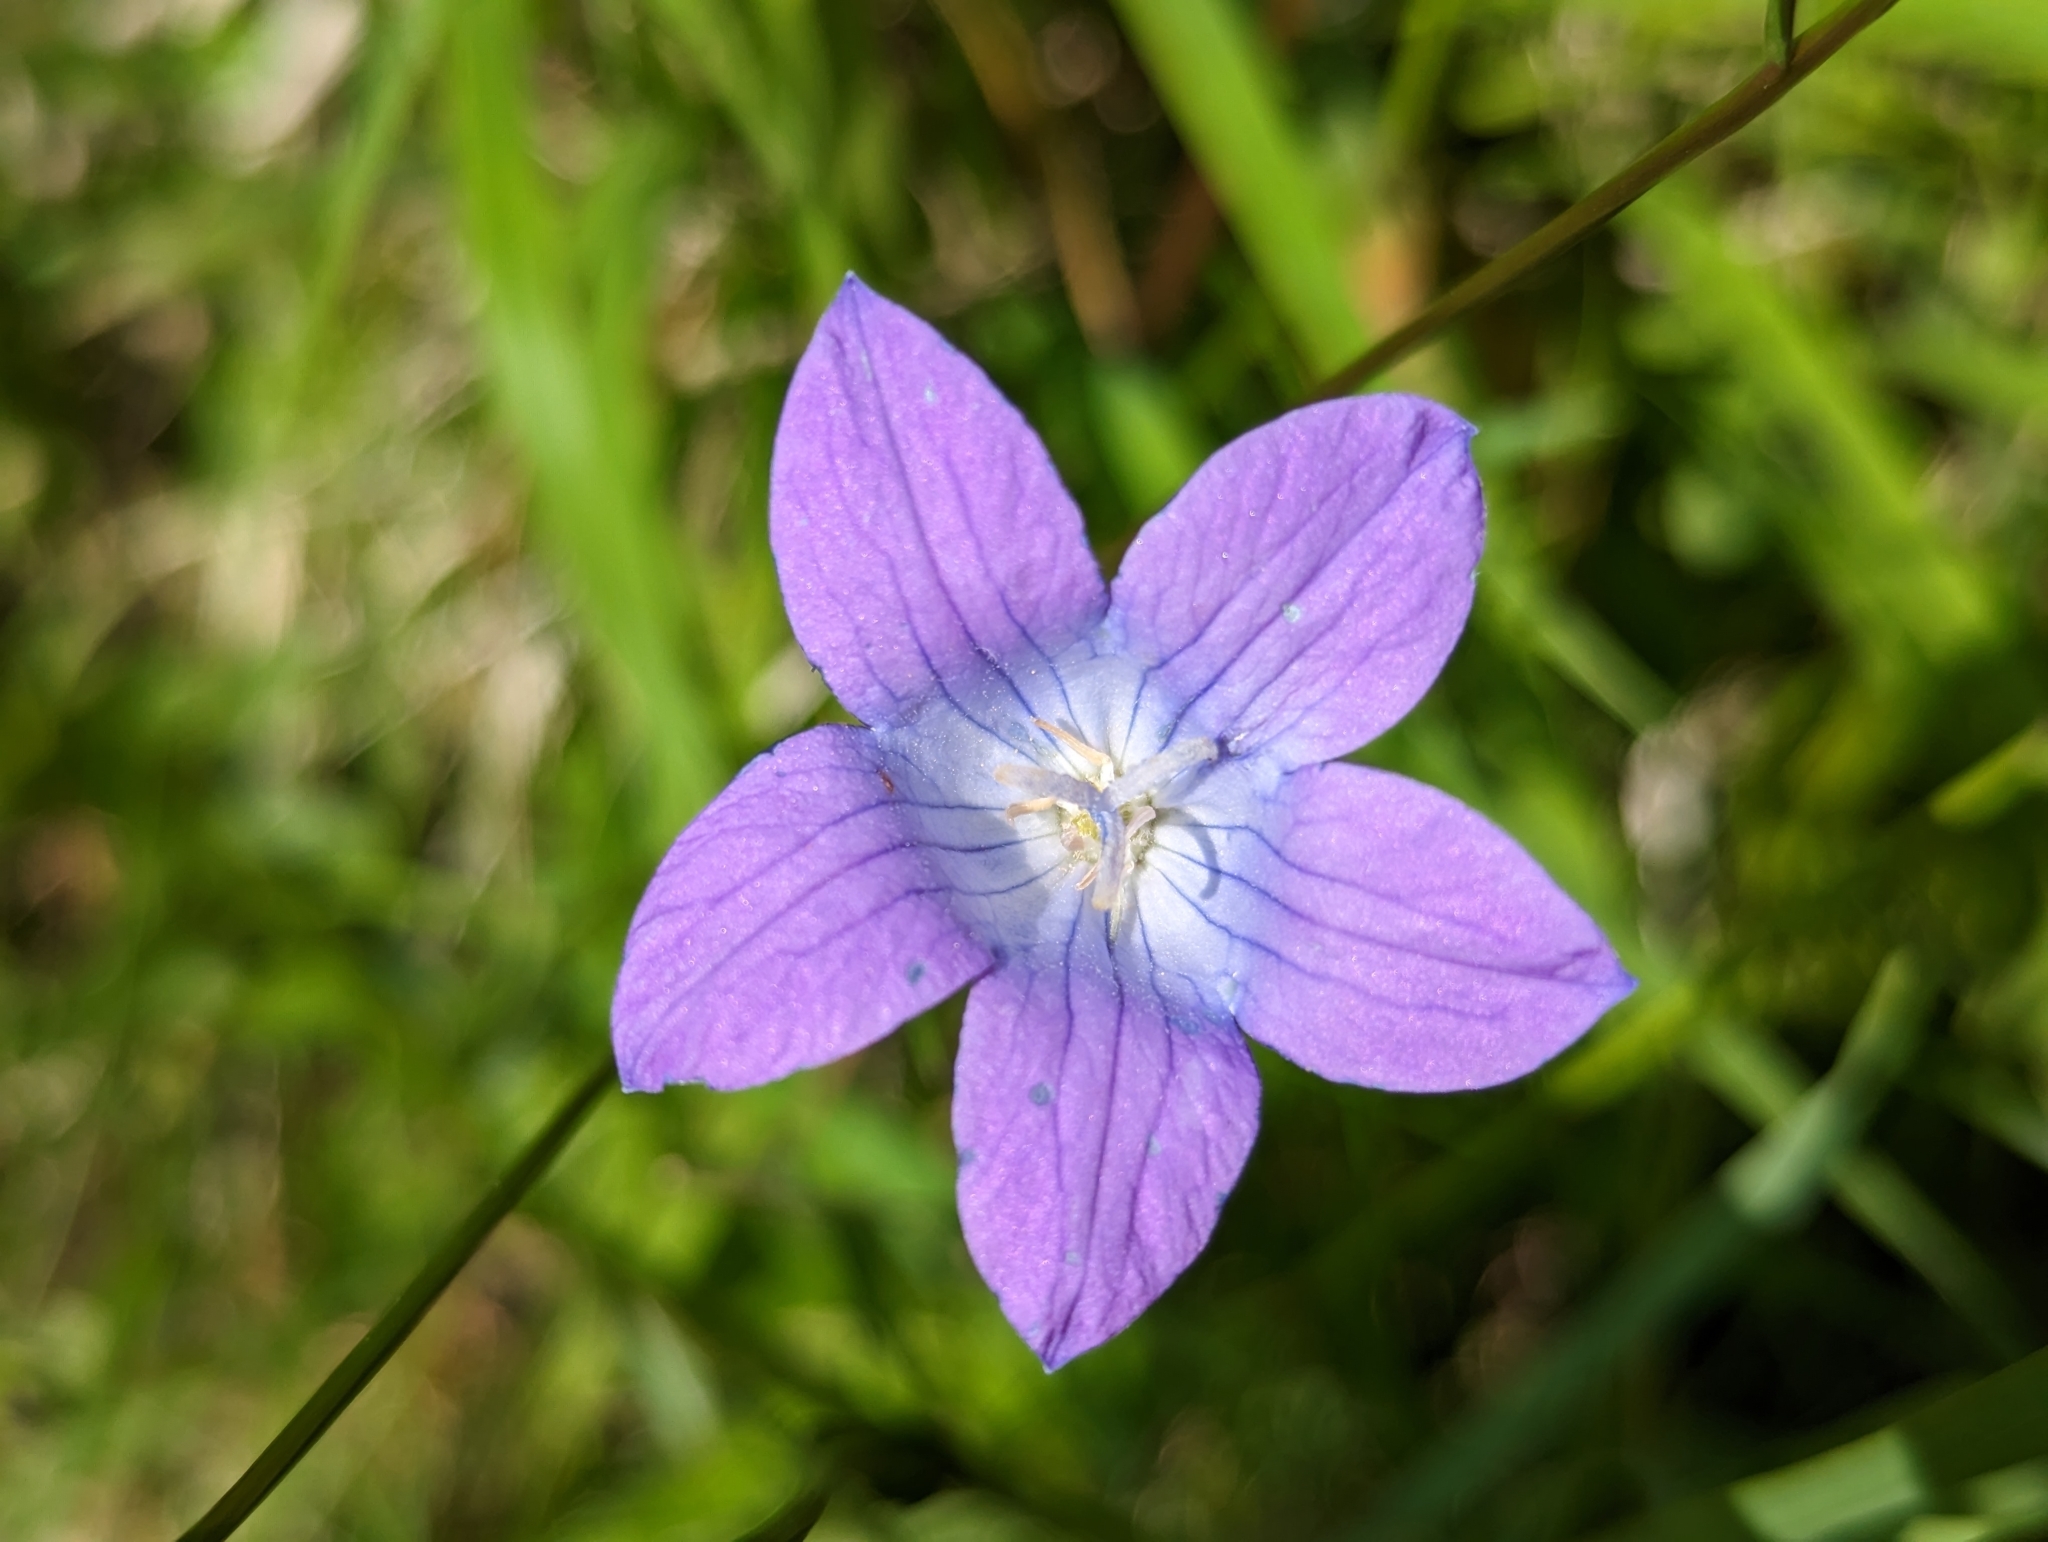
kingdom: Plantae
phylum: Tracheophyta
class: Magnoliopsida
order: Asterales
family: Campanulaceae
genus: Campanula
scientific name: Campanula patula
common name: Spreading bellflower
